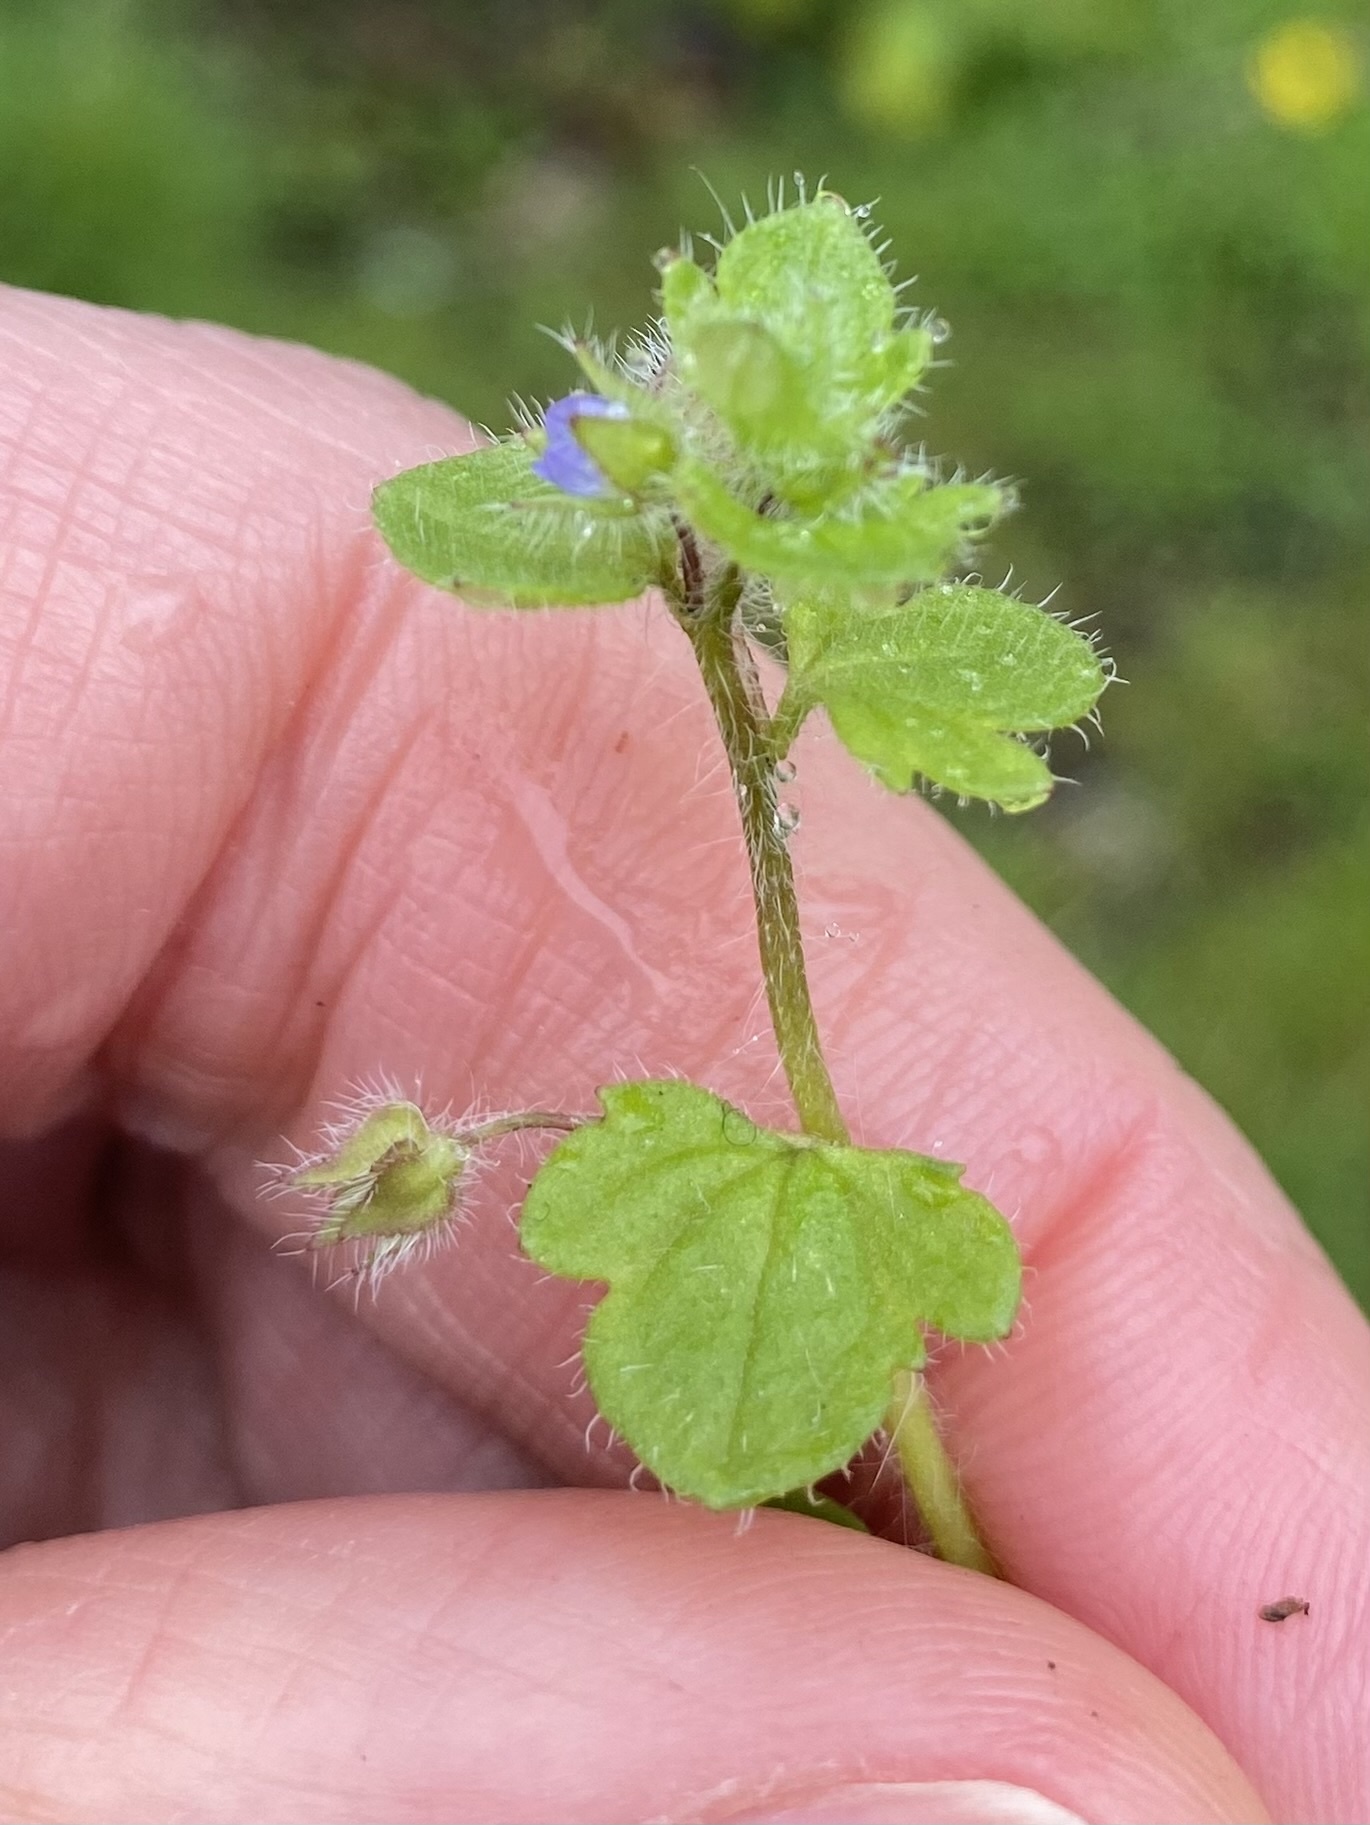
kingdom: Plantae
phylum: Tracheophyta
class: Magnoliopsida
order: Lamiales
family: Plantaginaceae
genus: Veronica
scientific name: Veronica hederifolia
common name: Ivy-leaved speedwell
